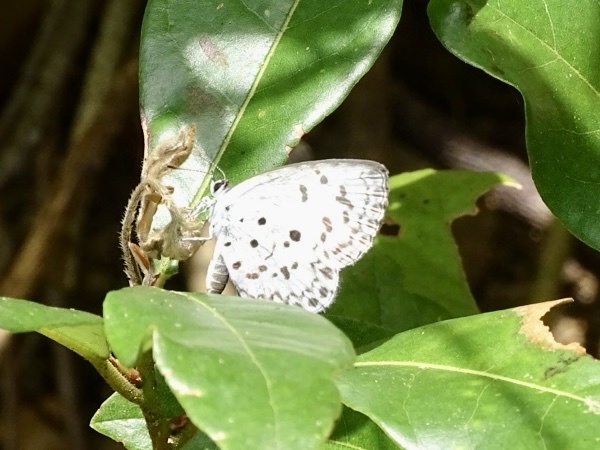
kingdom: Animalia
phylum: Arthropoda
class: Insecta
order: Lepidoptera
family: Lycaenidae
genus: Acytolepis
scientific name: Acytolepis puspa
